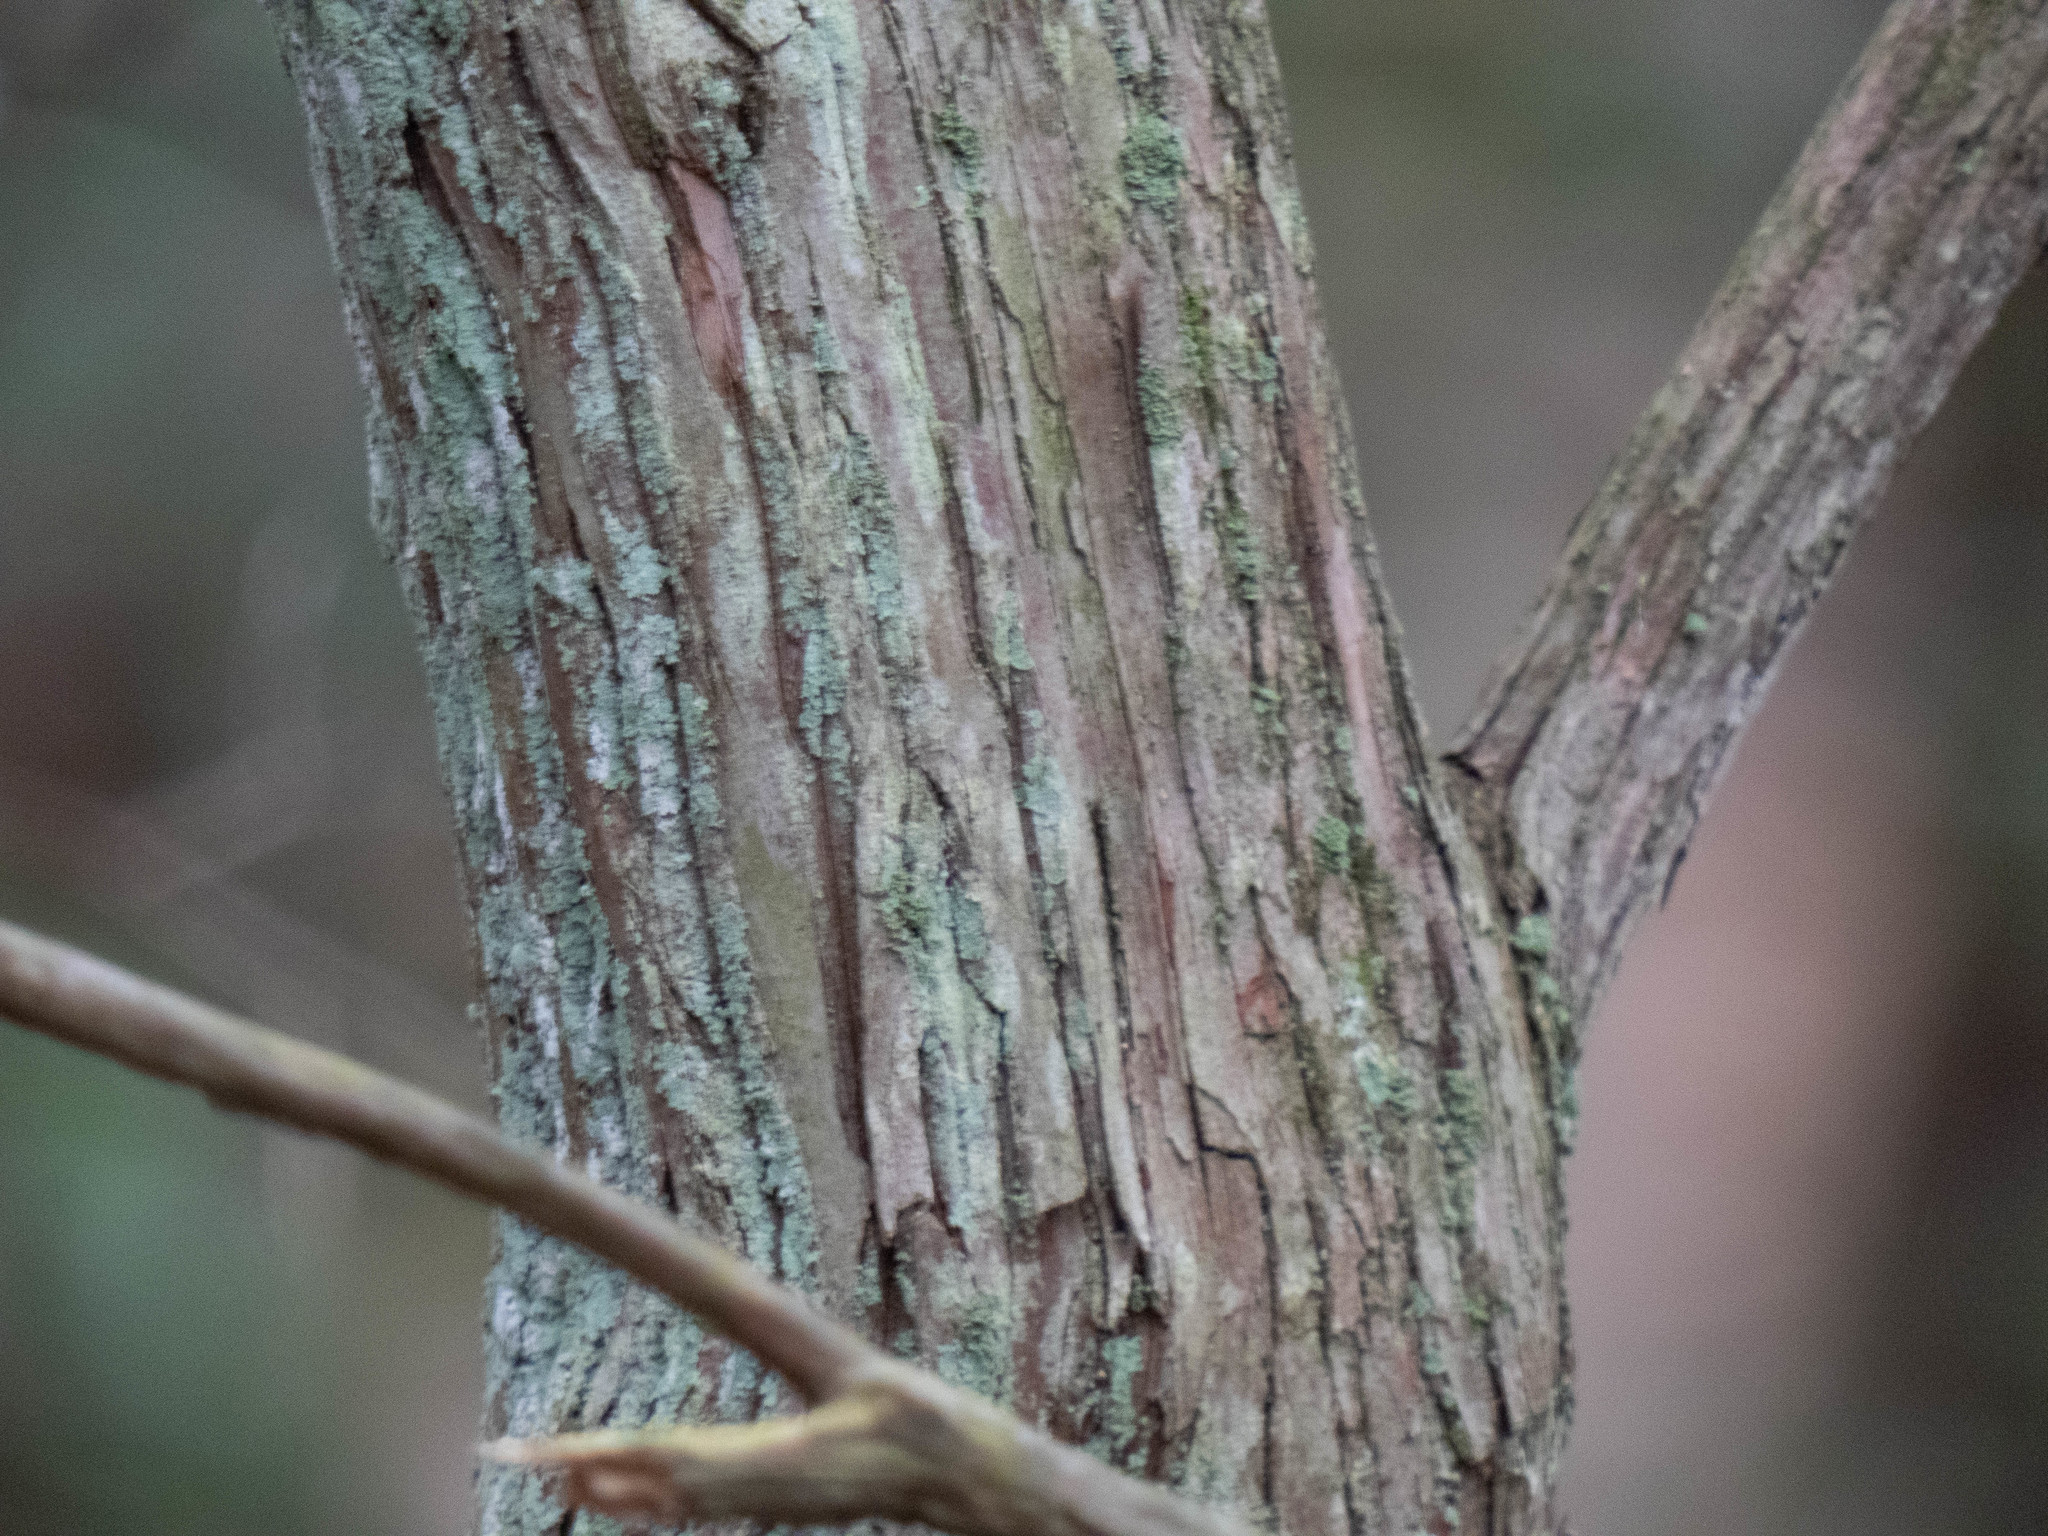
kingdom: Plantae
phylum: Tracheophyta
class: Magnoliopsida
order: Ericales
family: Ericaceae
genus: Kalmia
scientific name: Kalmia latifolia
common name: Mountain-laurel
